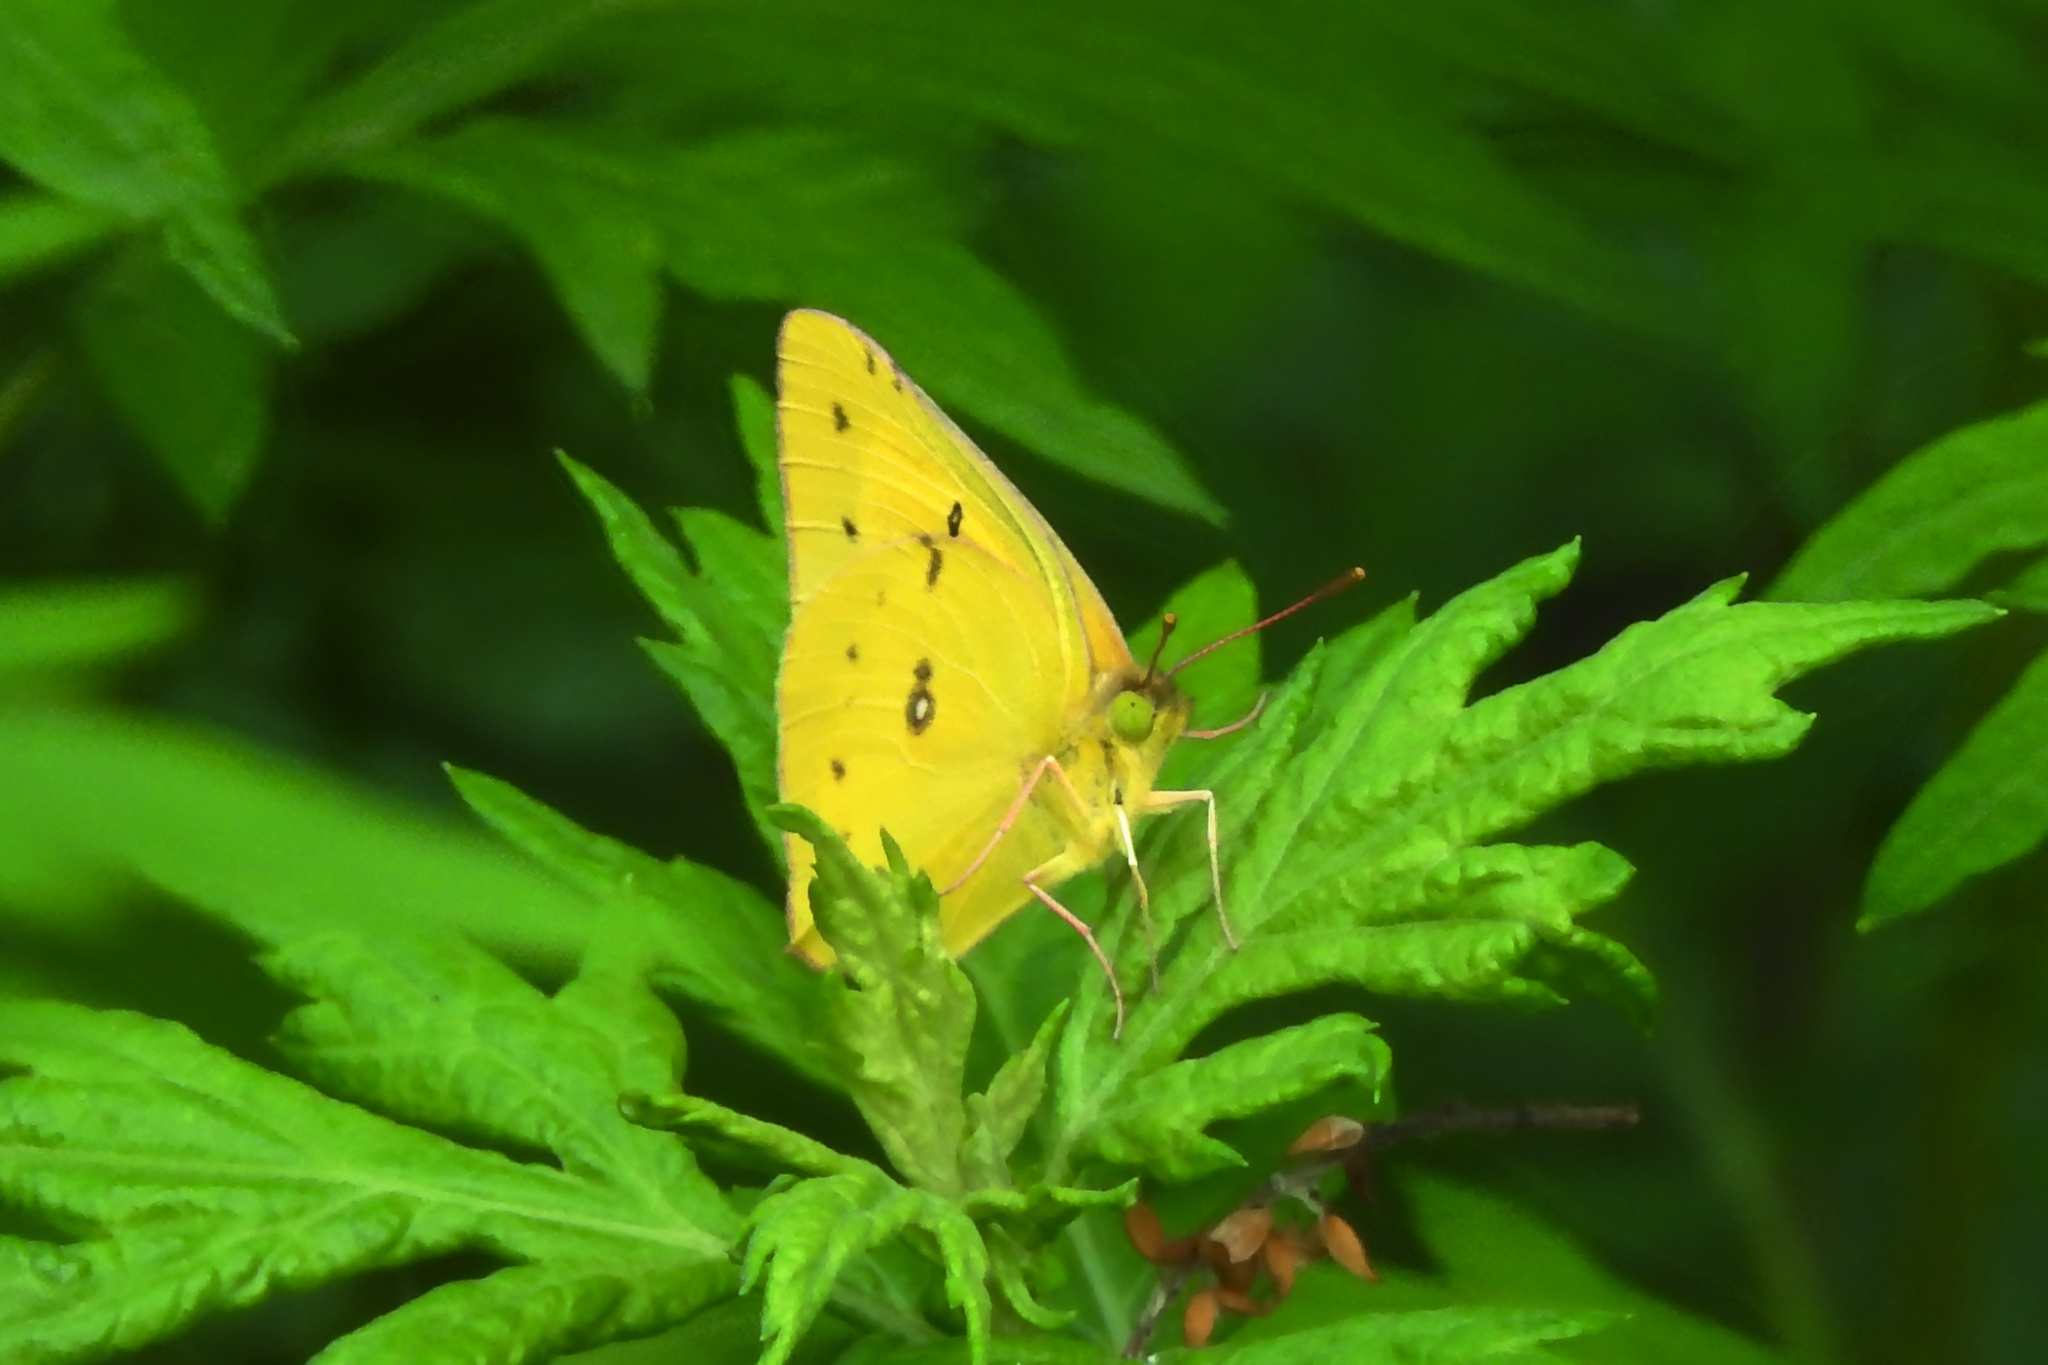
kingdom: Animalia
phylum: Arthropoda
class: Insecta
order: Lepidoptera
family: Pieridae
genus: Colias
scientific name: Colias eurytheme
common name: Alfalfa butterfly
